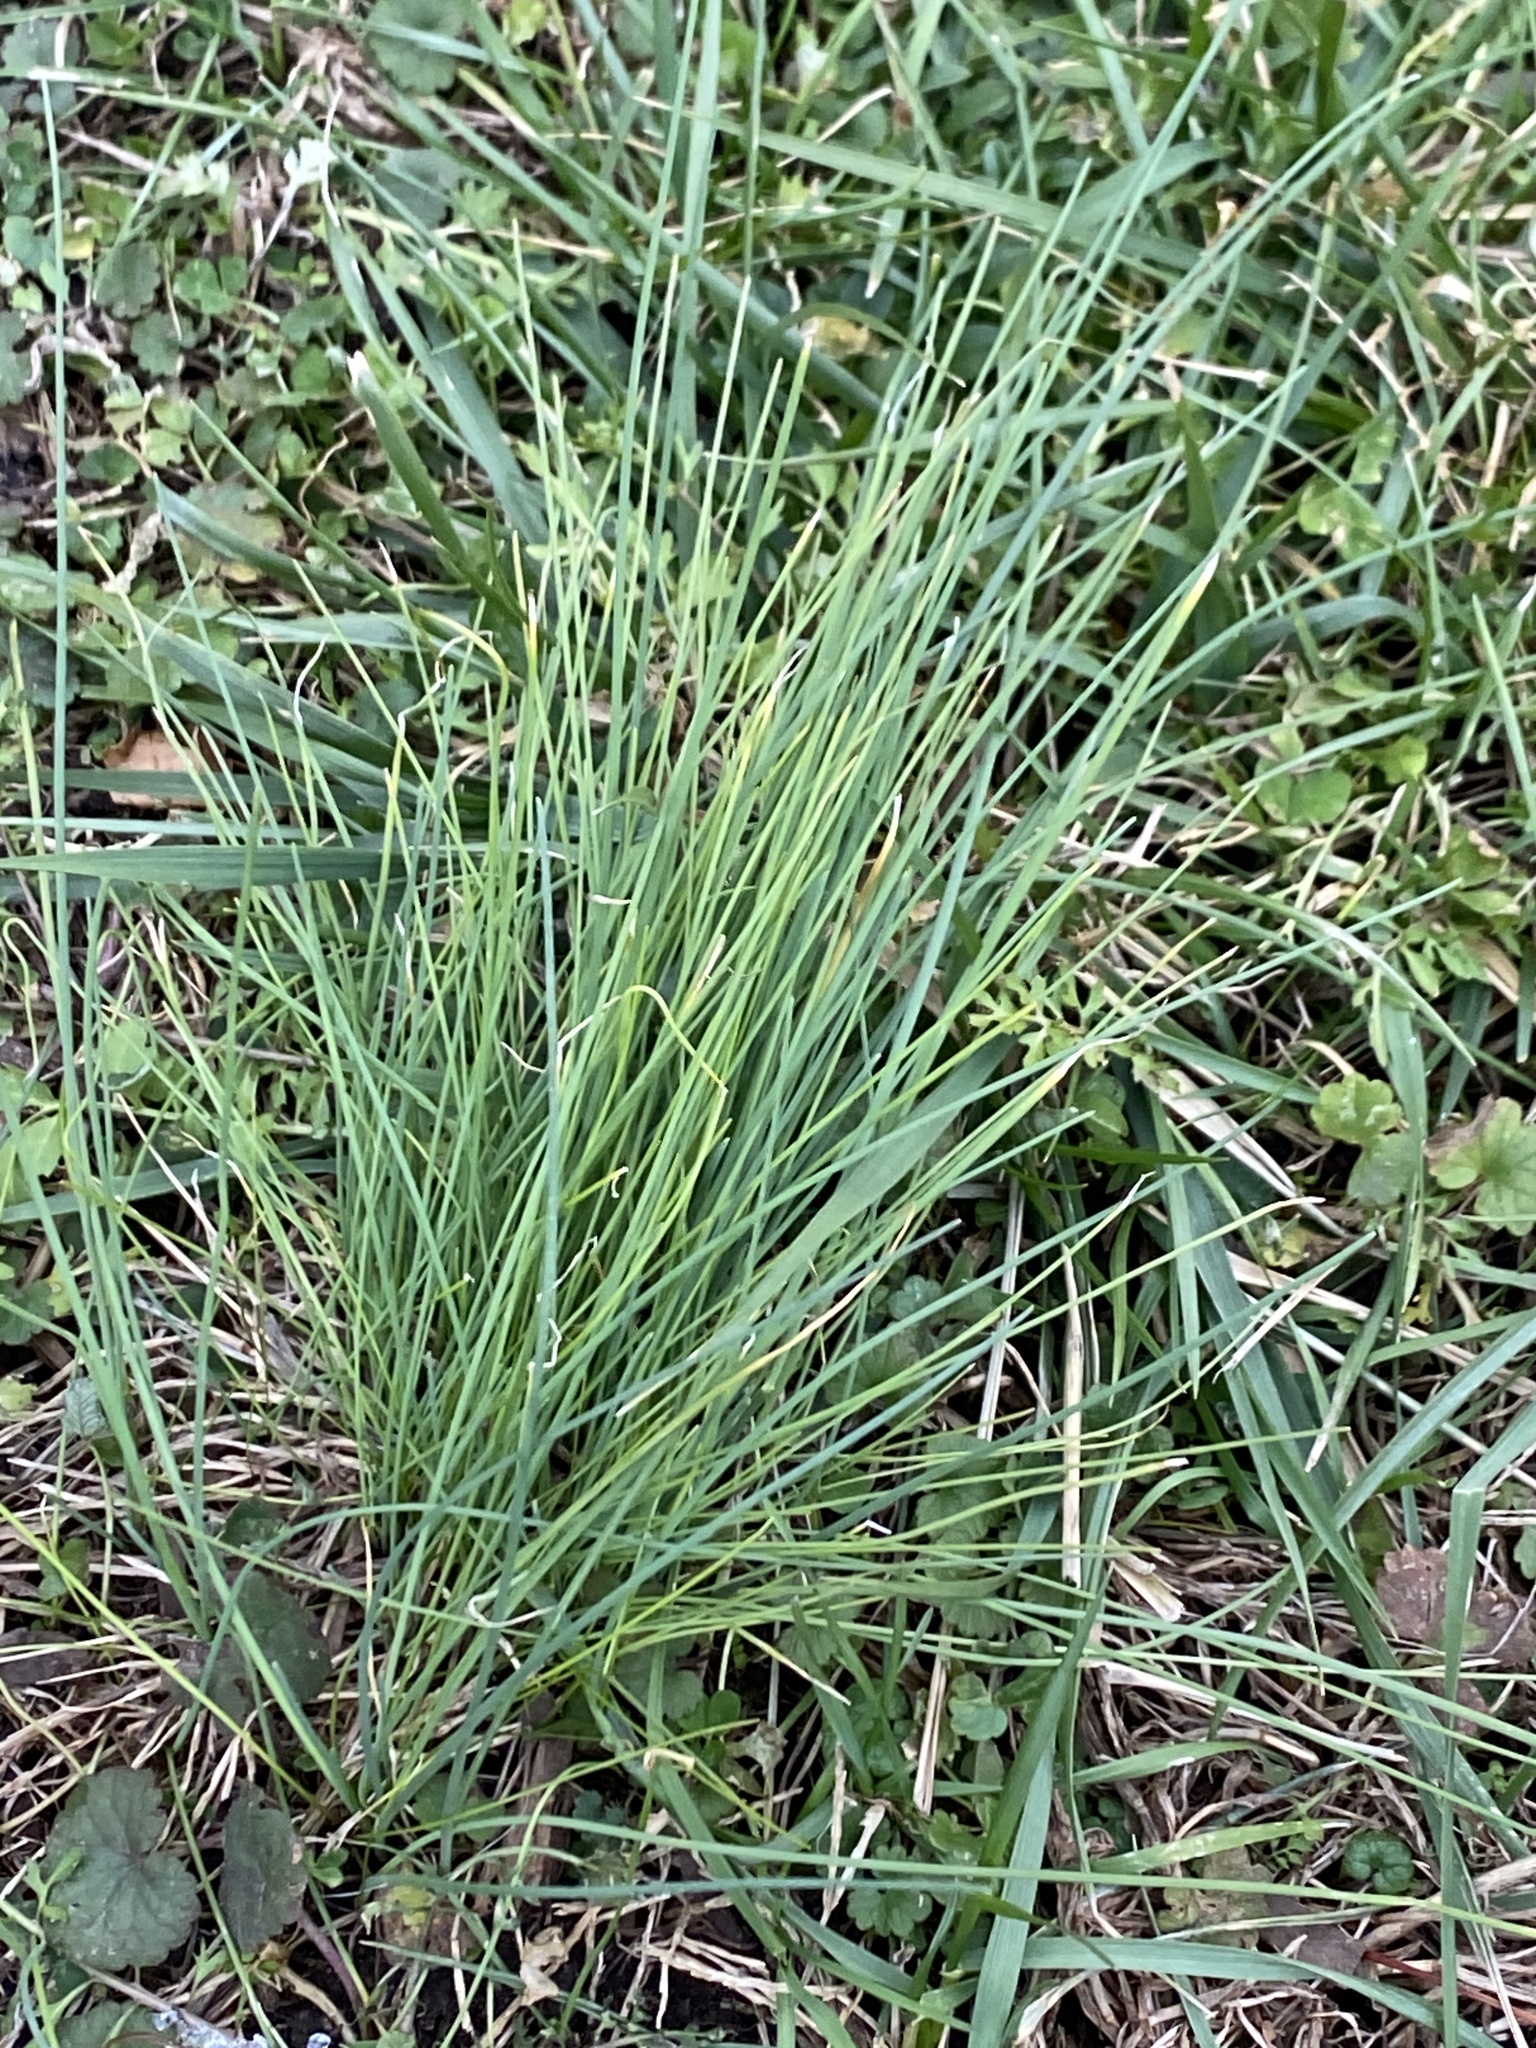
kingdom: Plantae
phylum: Tracheophyta
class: Liliopsida
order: Asparagales
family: Amaryllidaceae
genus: Allium
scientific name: Allium vineale
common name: Crow garlic
